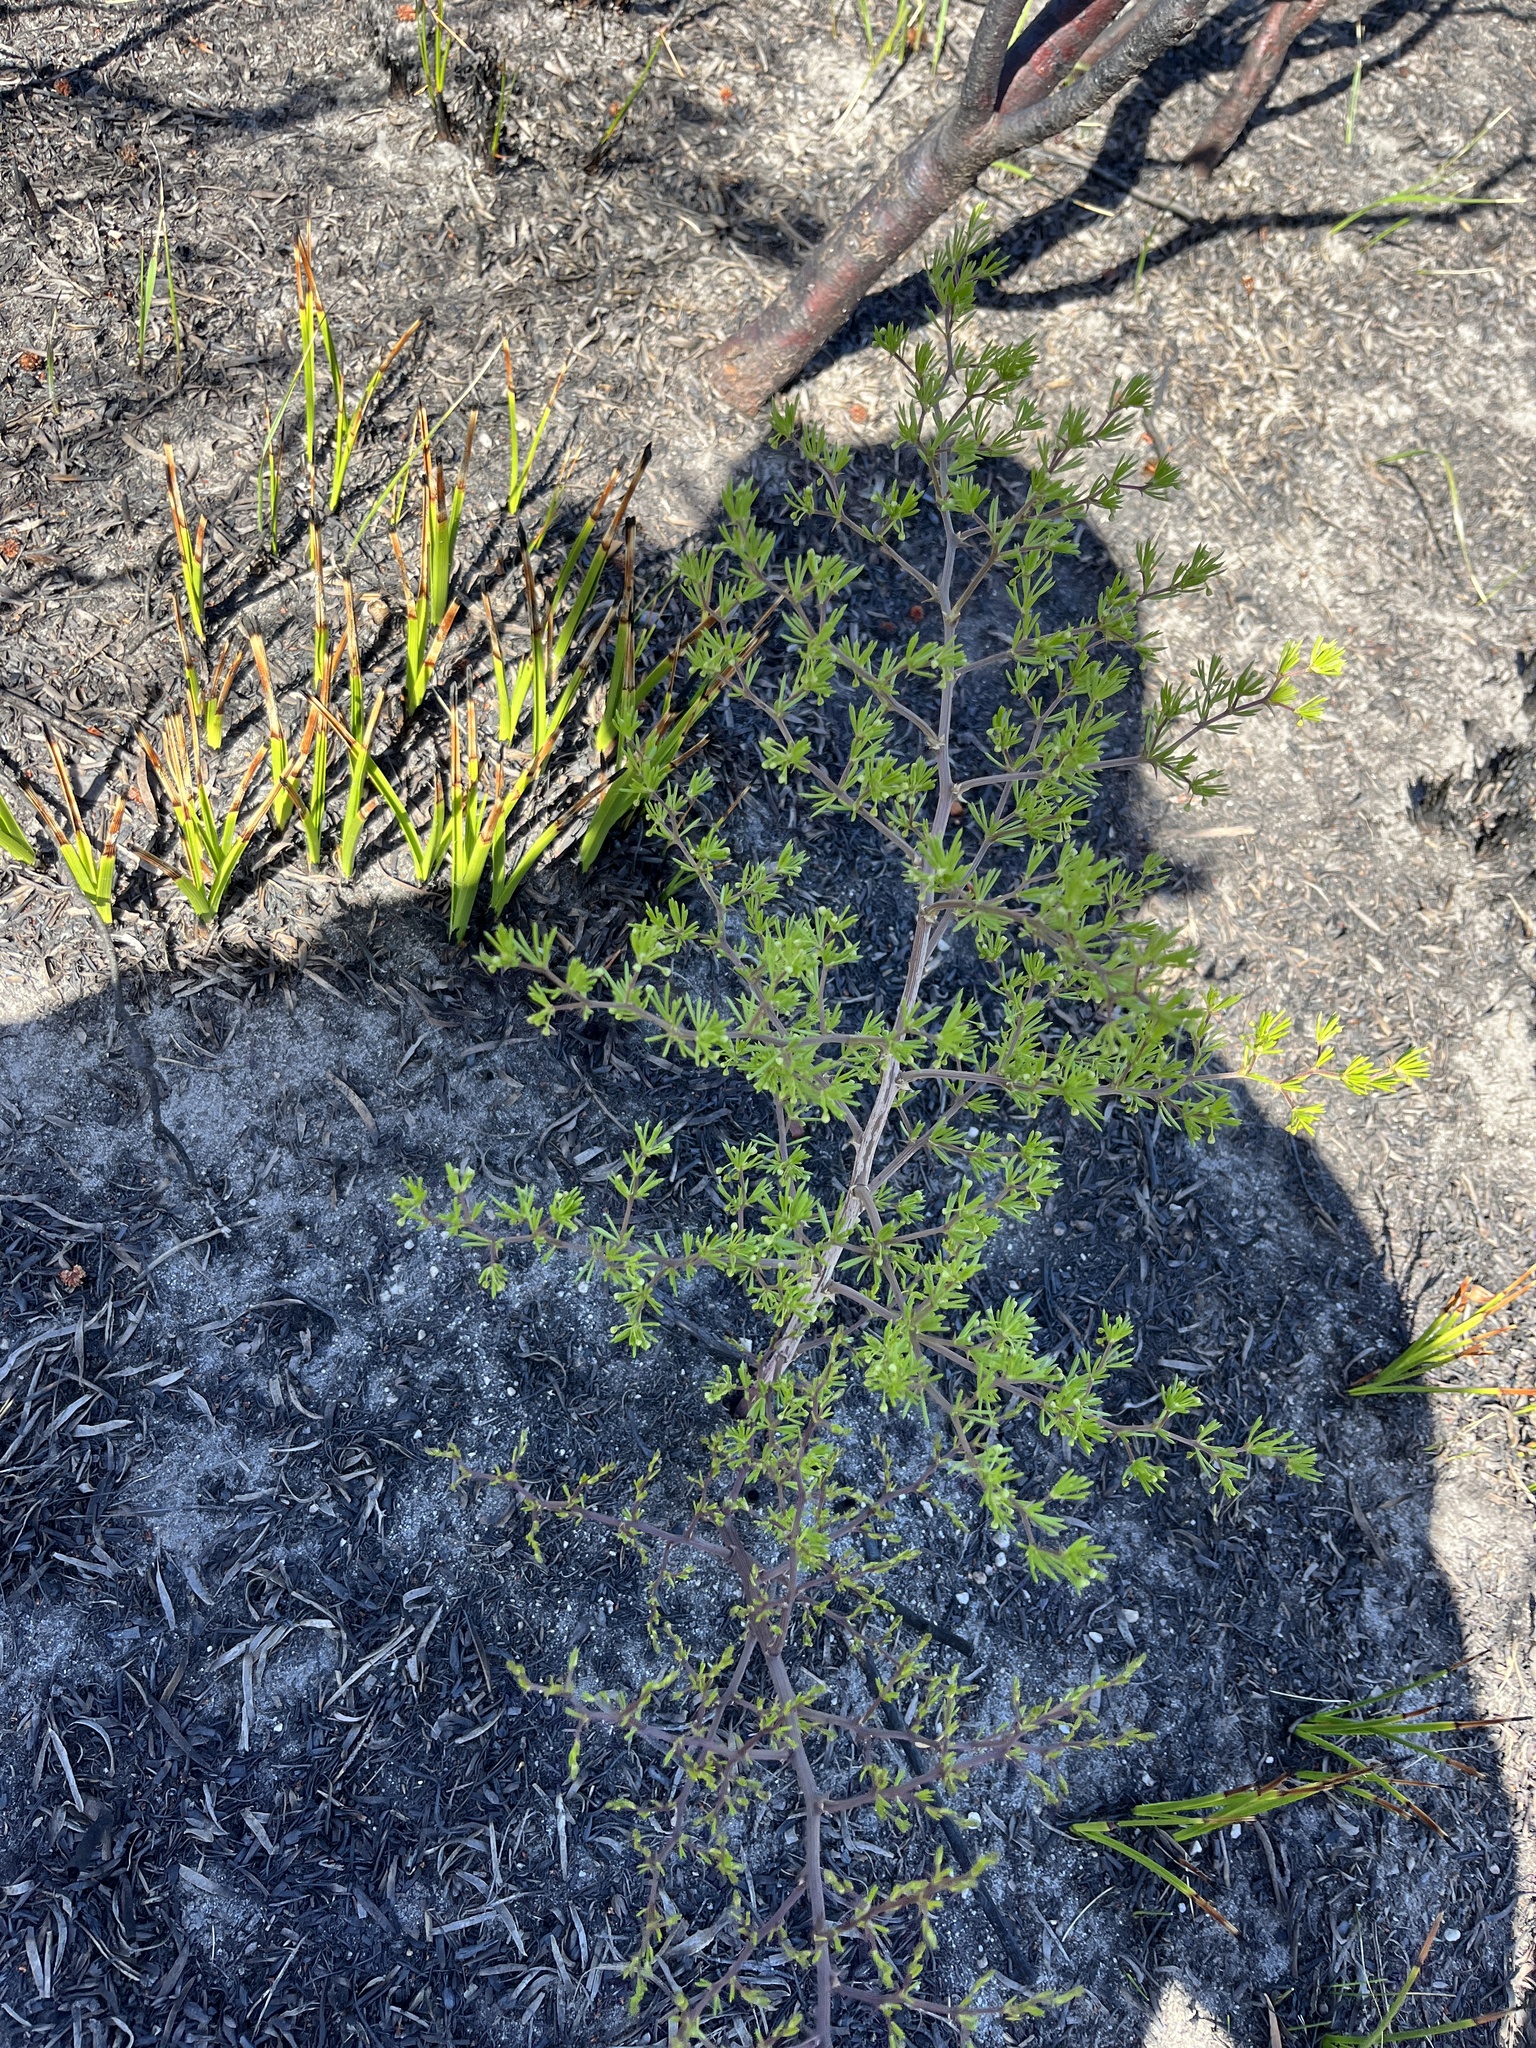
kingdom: Plantae
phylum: Tracheophyta
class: Liliopsida
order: Asparagales
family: Asparagaceae
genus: Asparagus
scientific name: Asparagus lignosus
